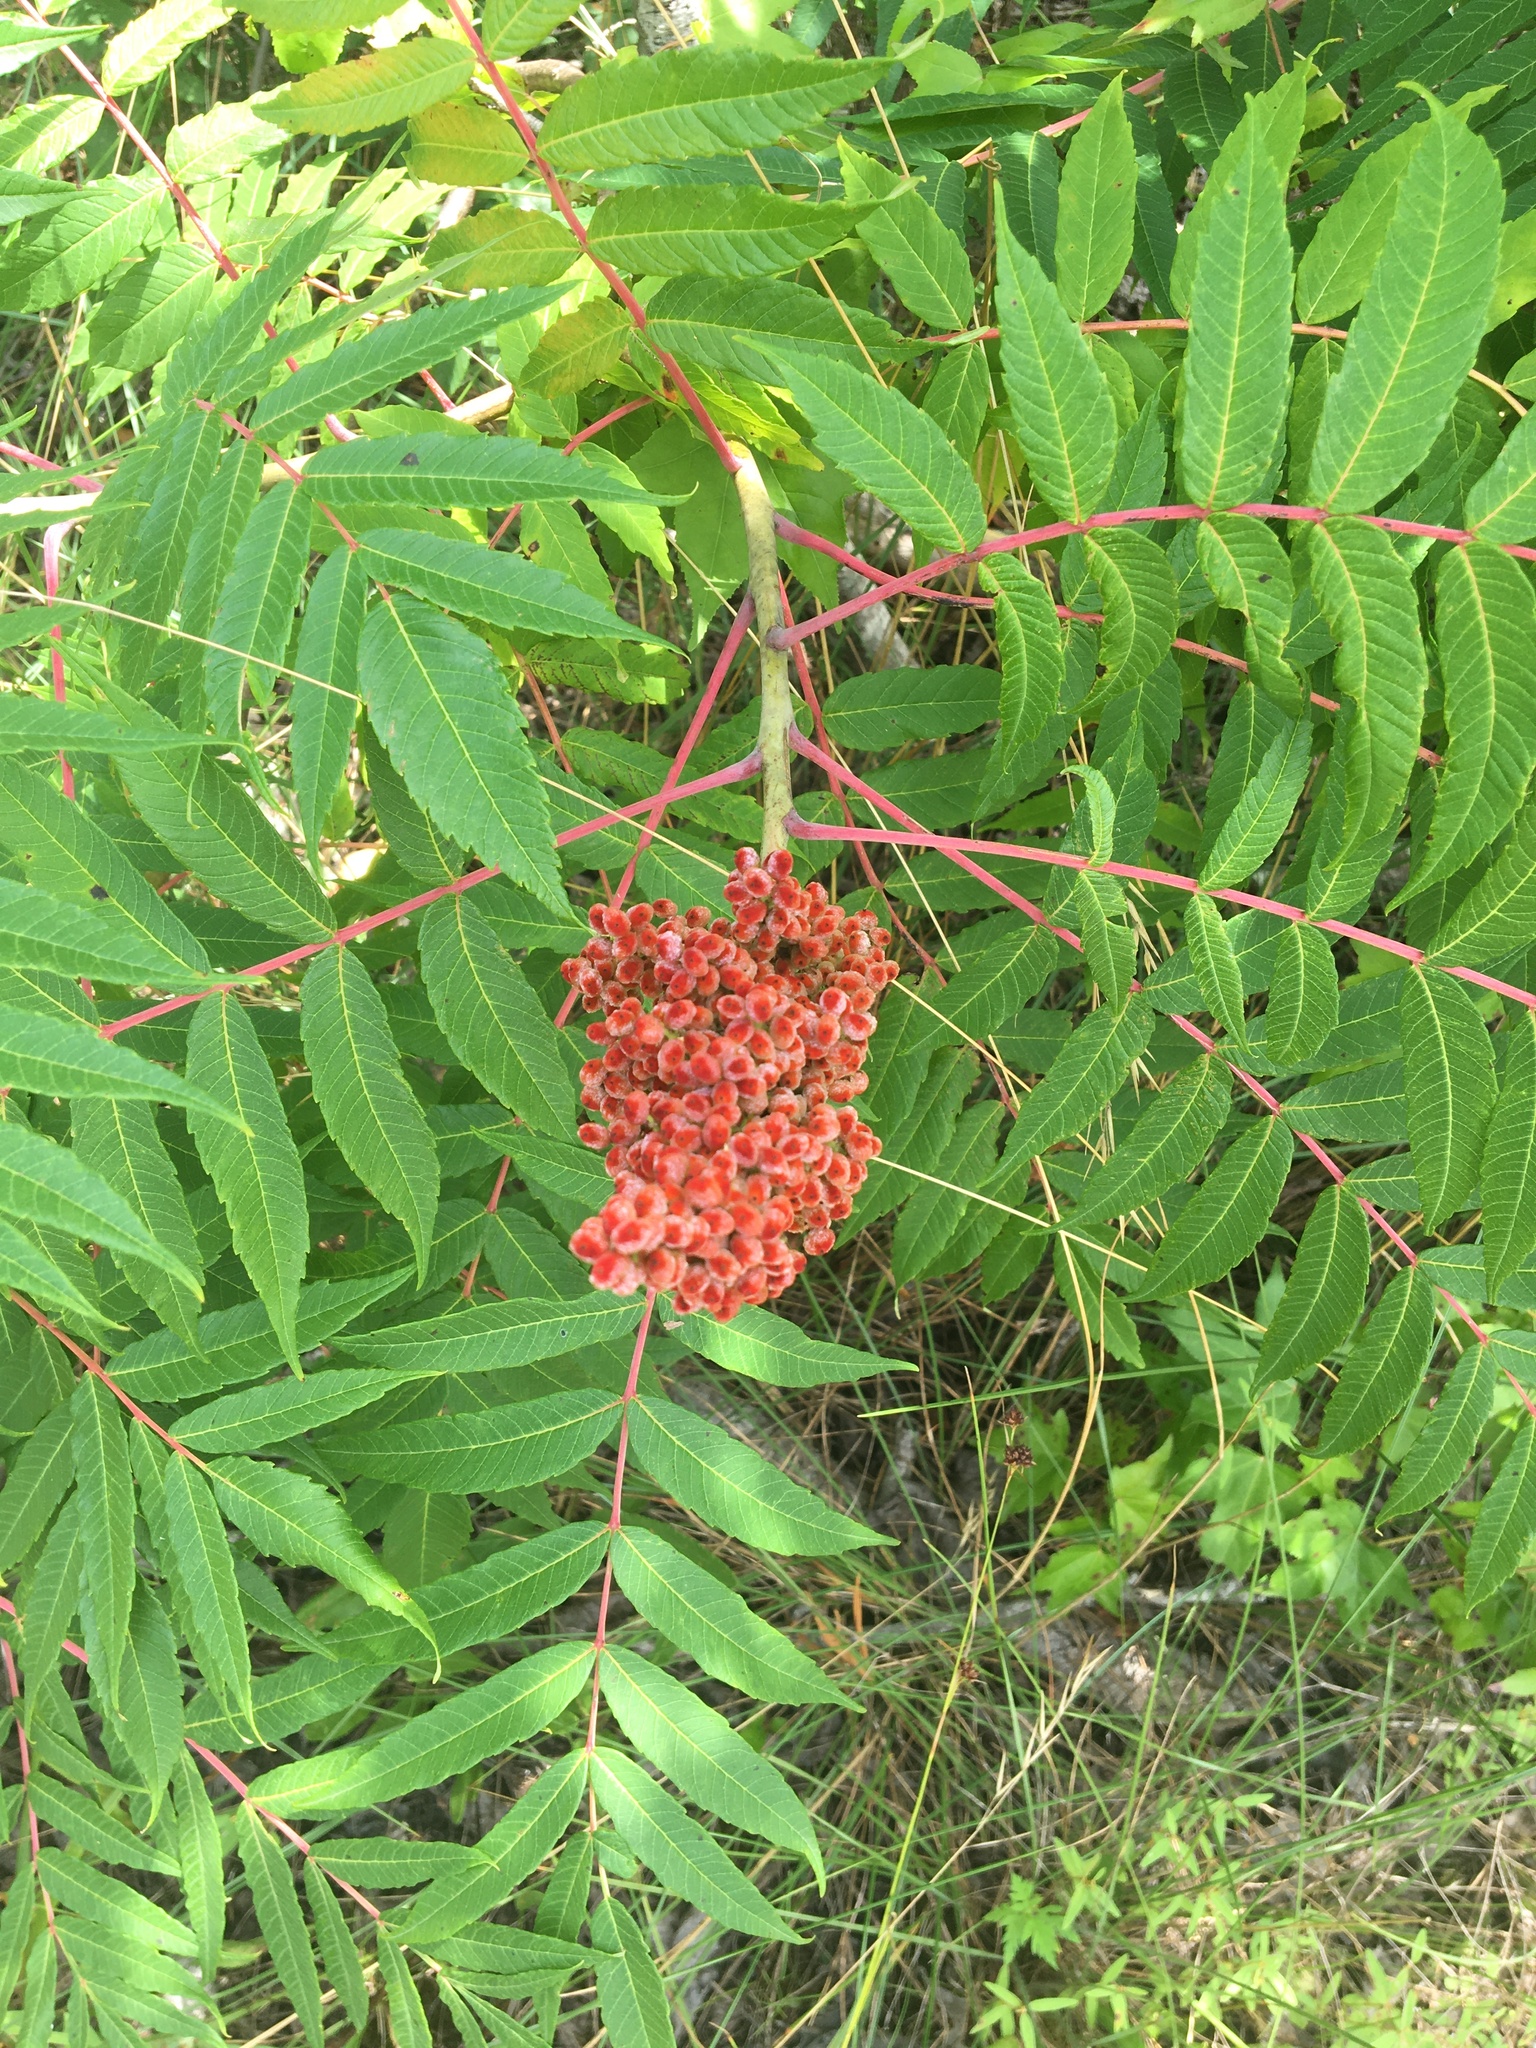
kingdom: Plantae
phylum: Tracheophyta
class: Magnoliopsida
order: Sapindales
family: Anacardiaceae
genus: Rhus
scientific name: Rhus glabra
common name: Scarlet sumac
